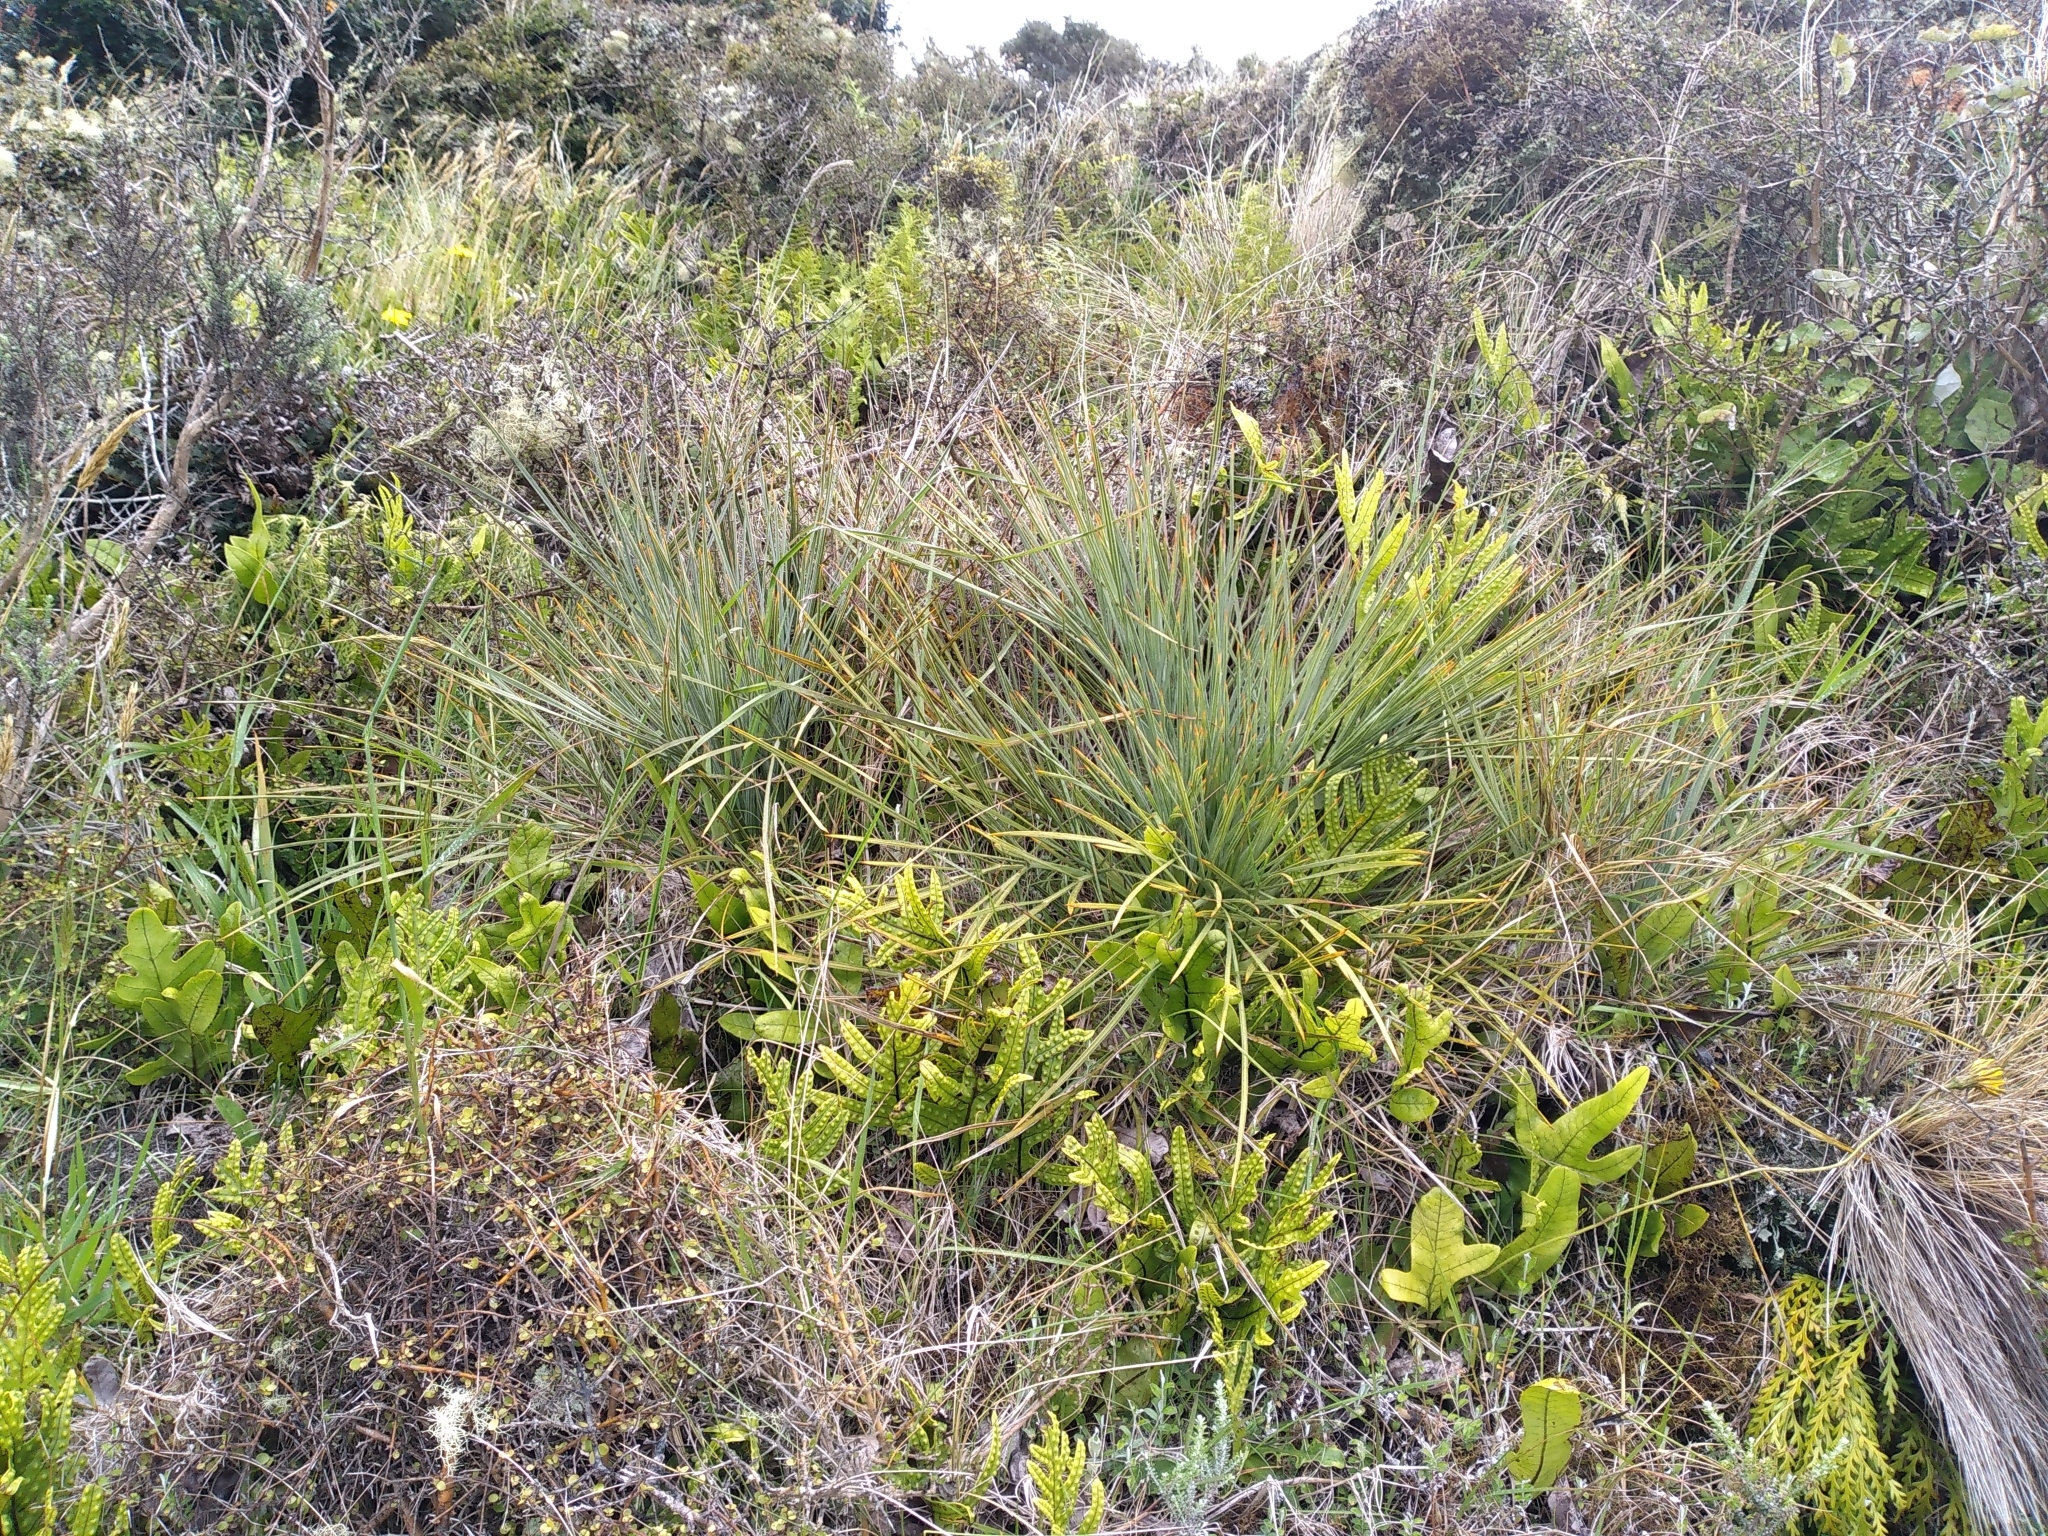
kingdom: Plantae
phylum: Tracheophyta
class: Magnoliopsida
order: Apiales
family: Apiaceae
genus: Aciphylla
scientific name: Aciphylla squarrosa
